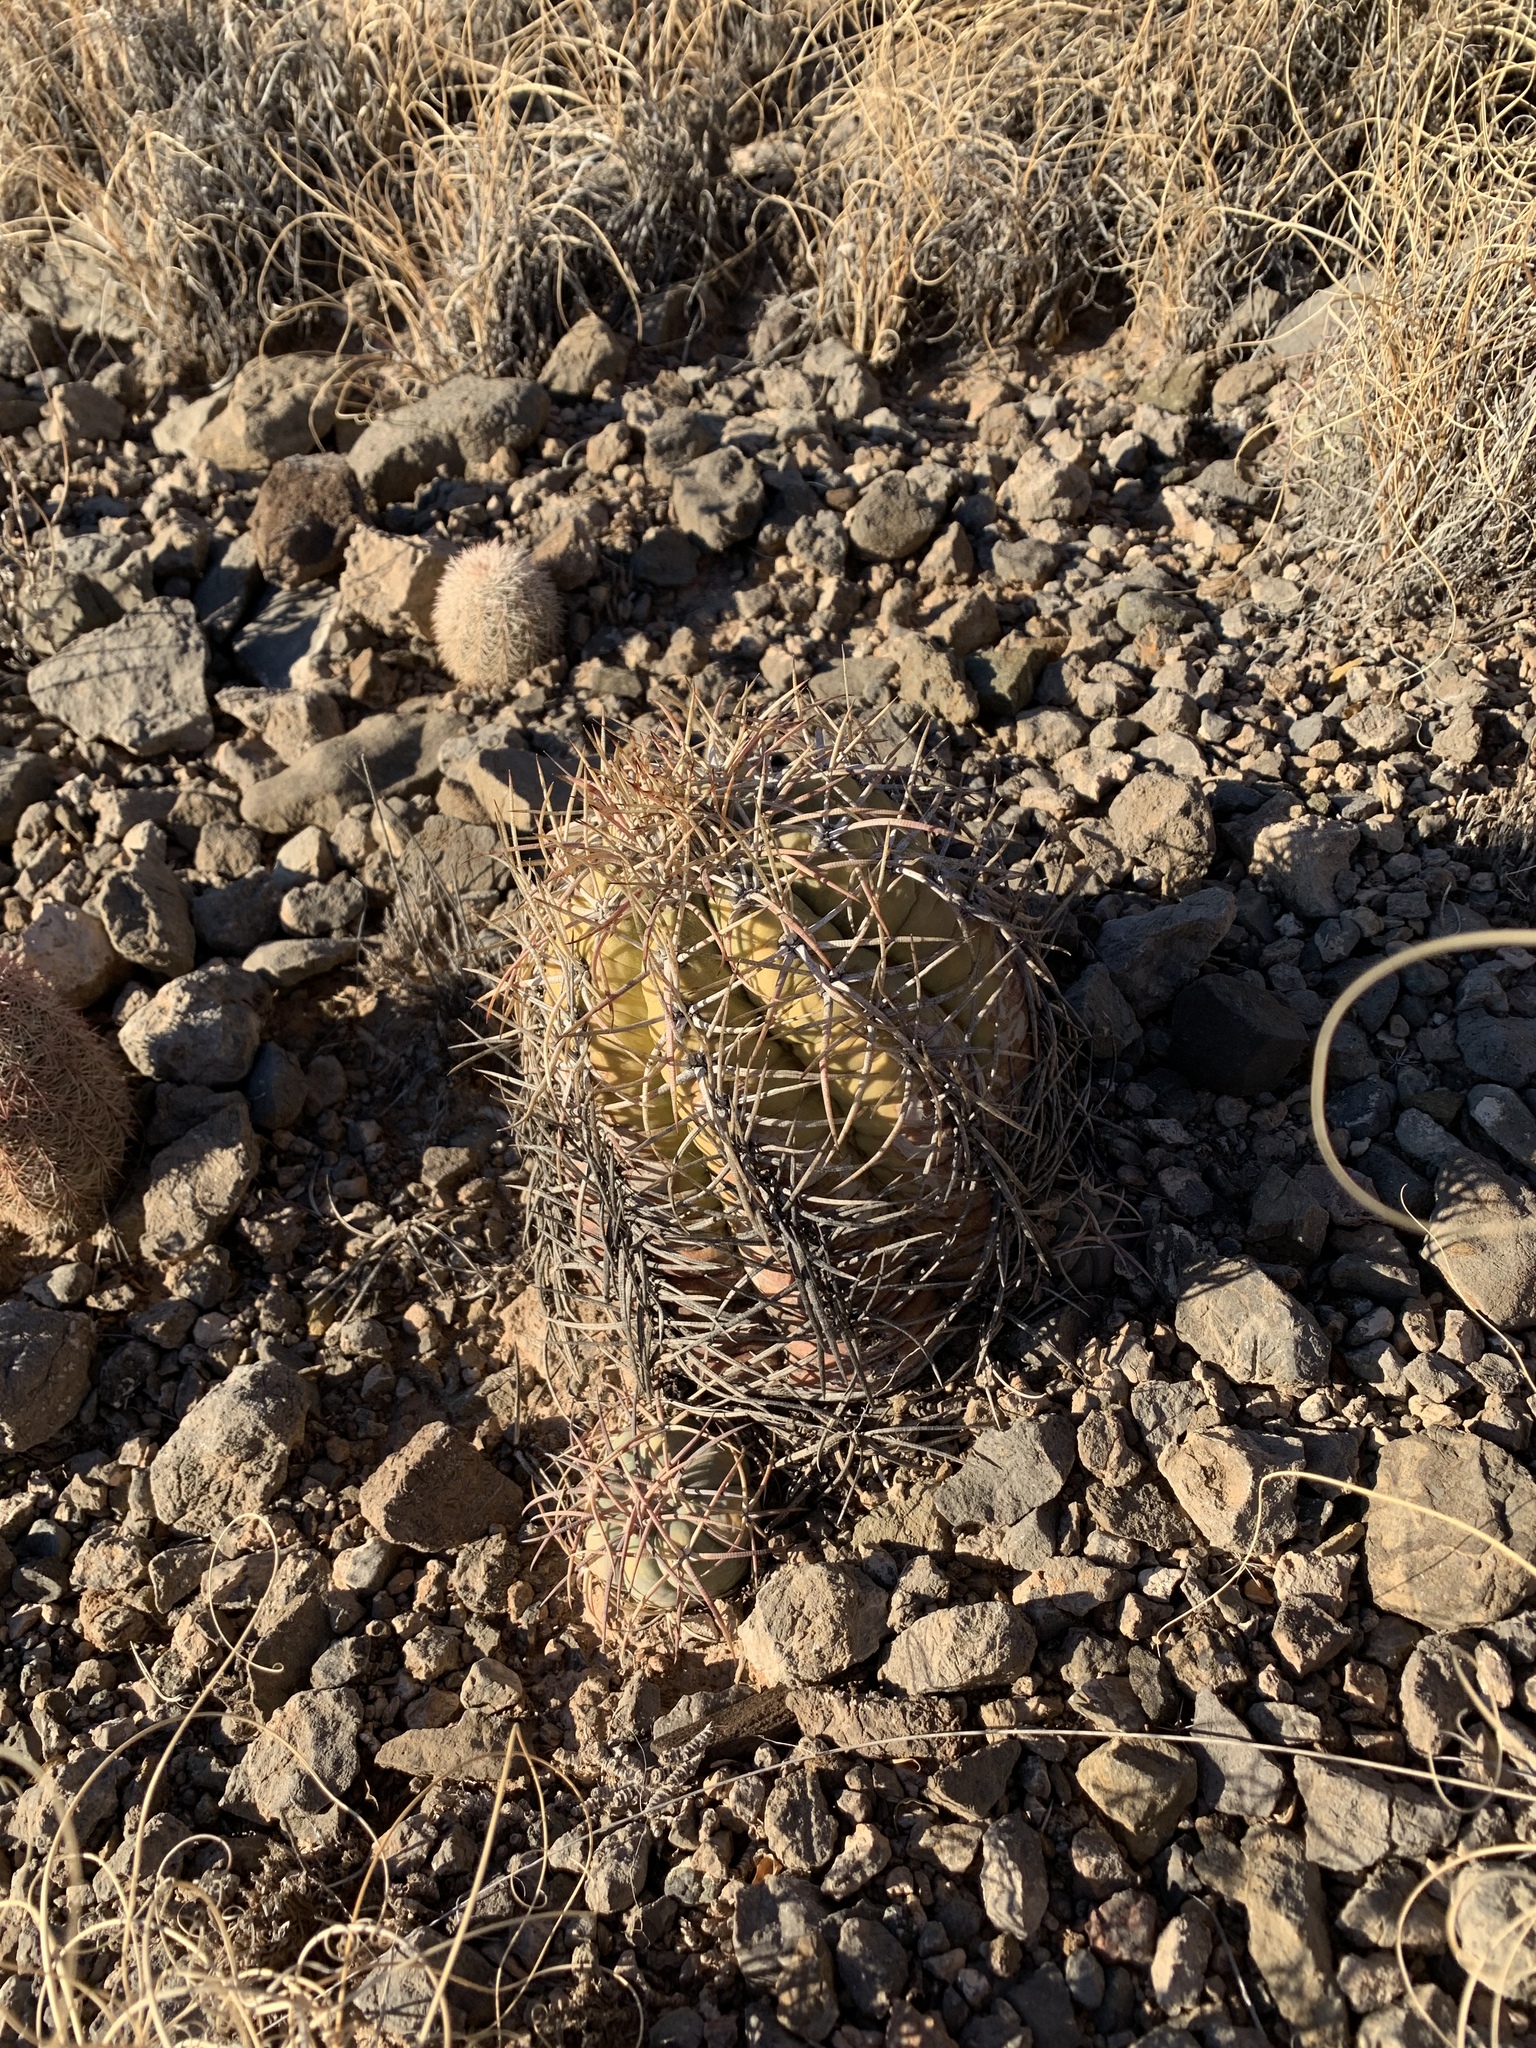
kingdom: Plantae
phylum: Tracheophyta
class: Magnoliopsida
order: Caryophyllales
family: Cactaceae
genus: Echinocactus
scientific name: Echinocactus horizonthalonius
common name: Devilshead
